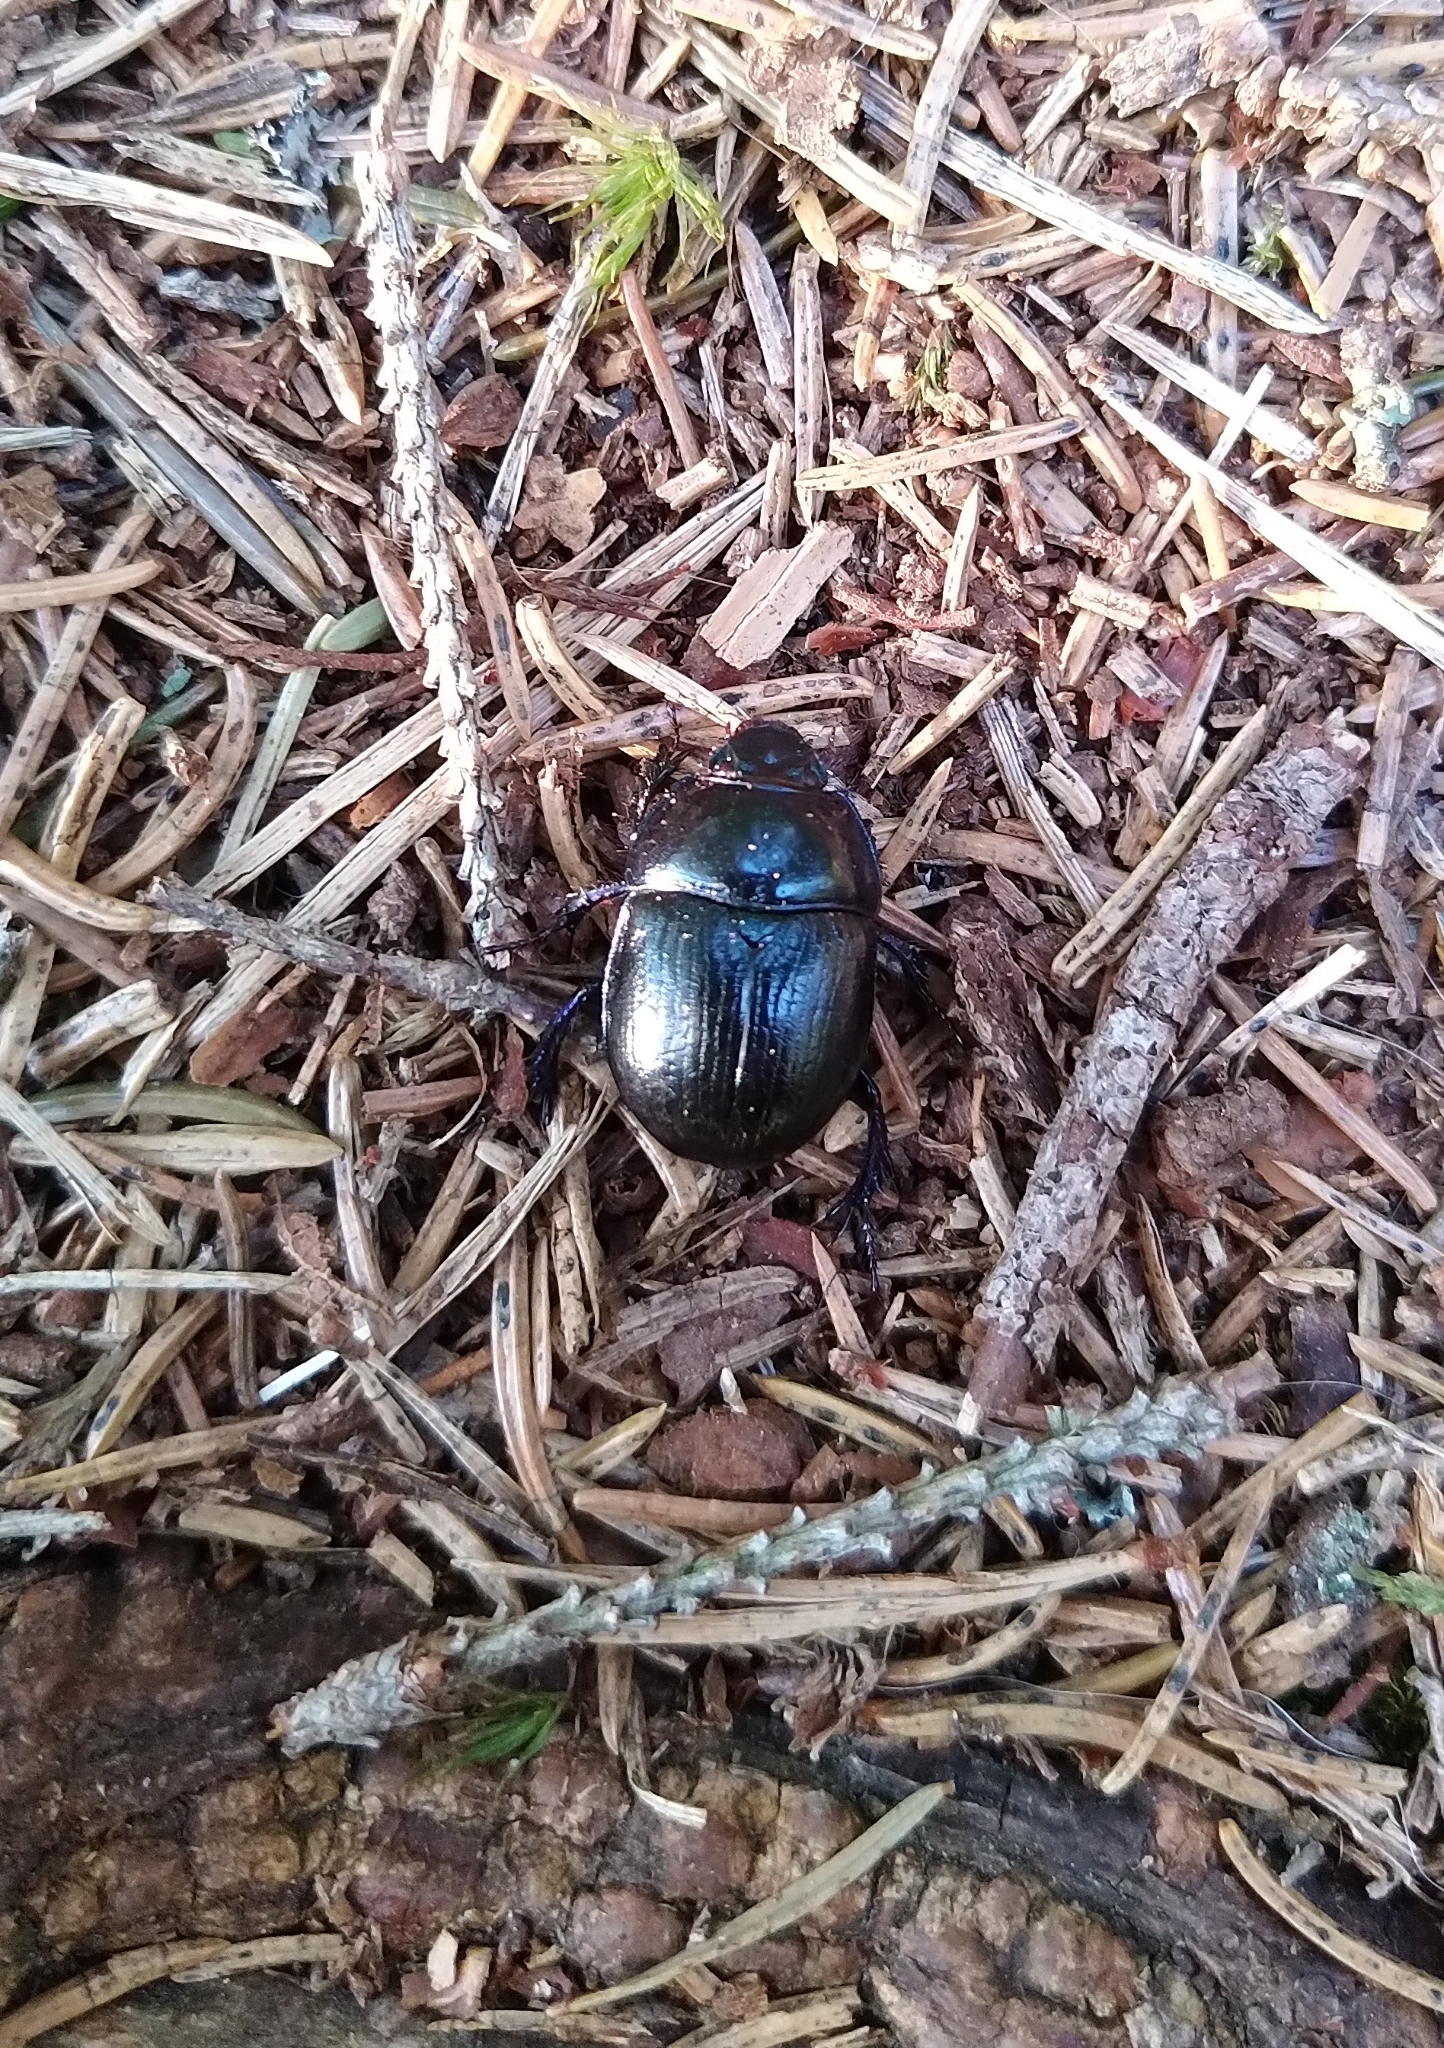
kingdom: Animalia
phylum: Arthropoda
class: Insecta
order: Coleoptera
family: Geotrupidae
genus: Anoplotrupes
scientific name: Anoplotrupes stercorosus
